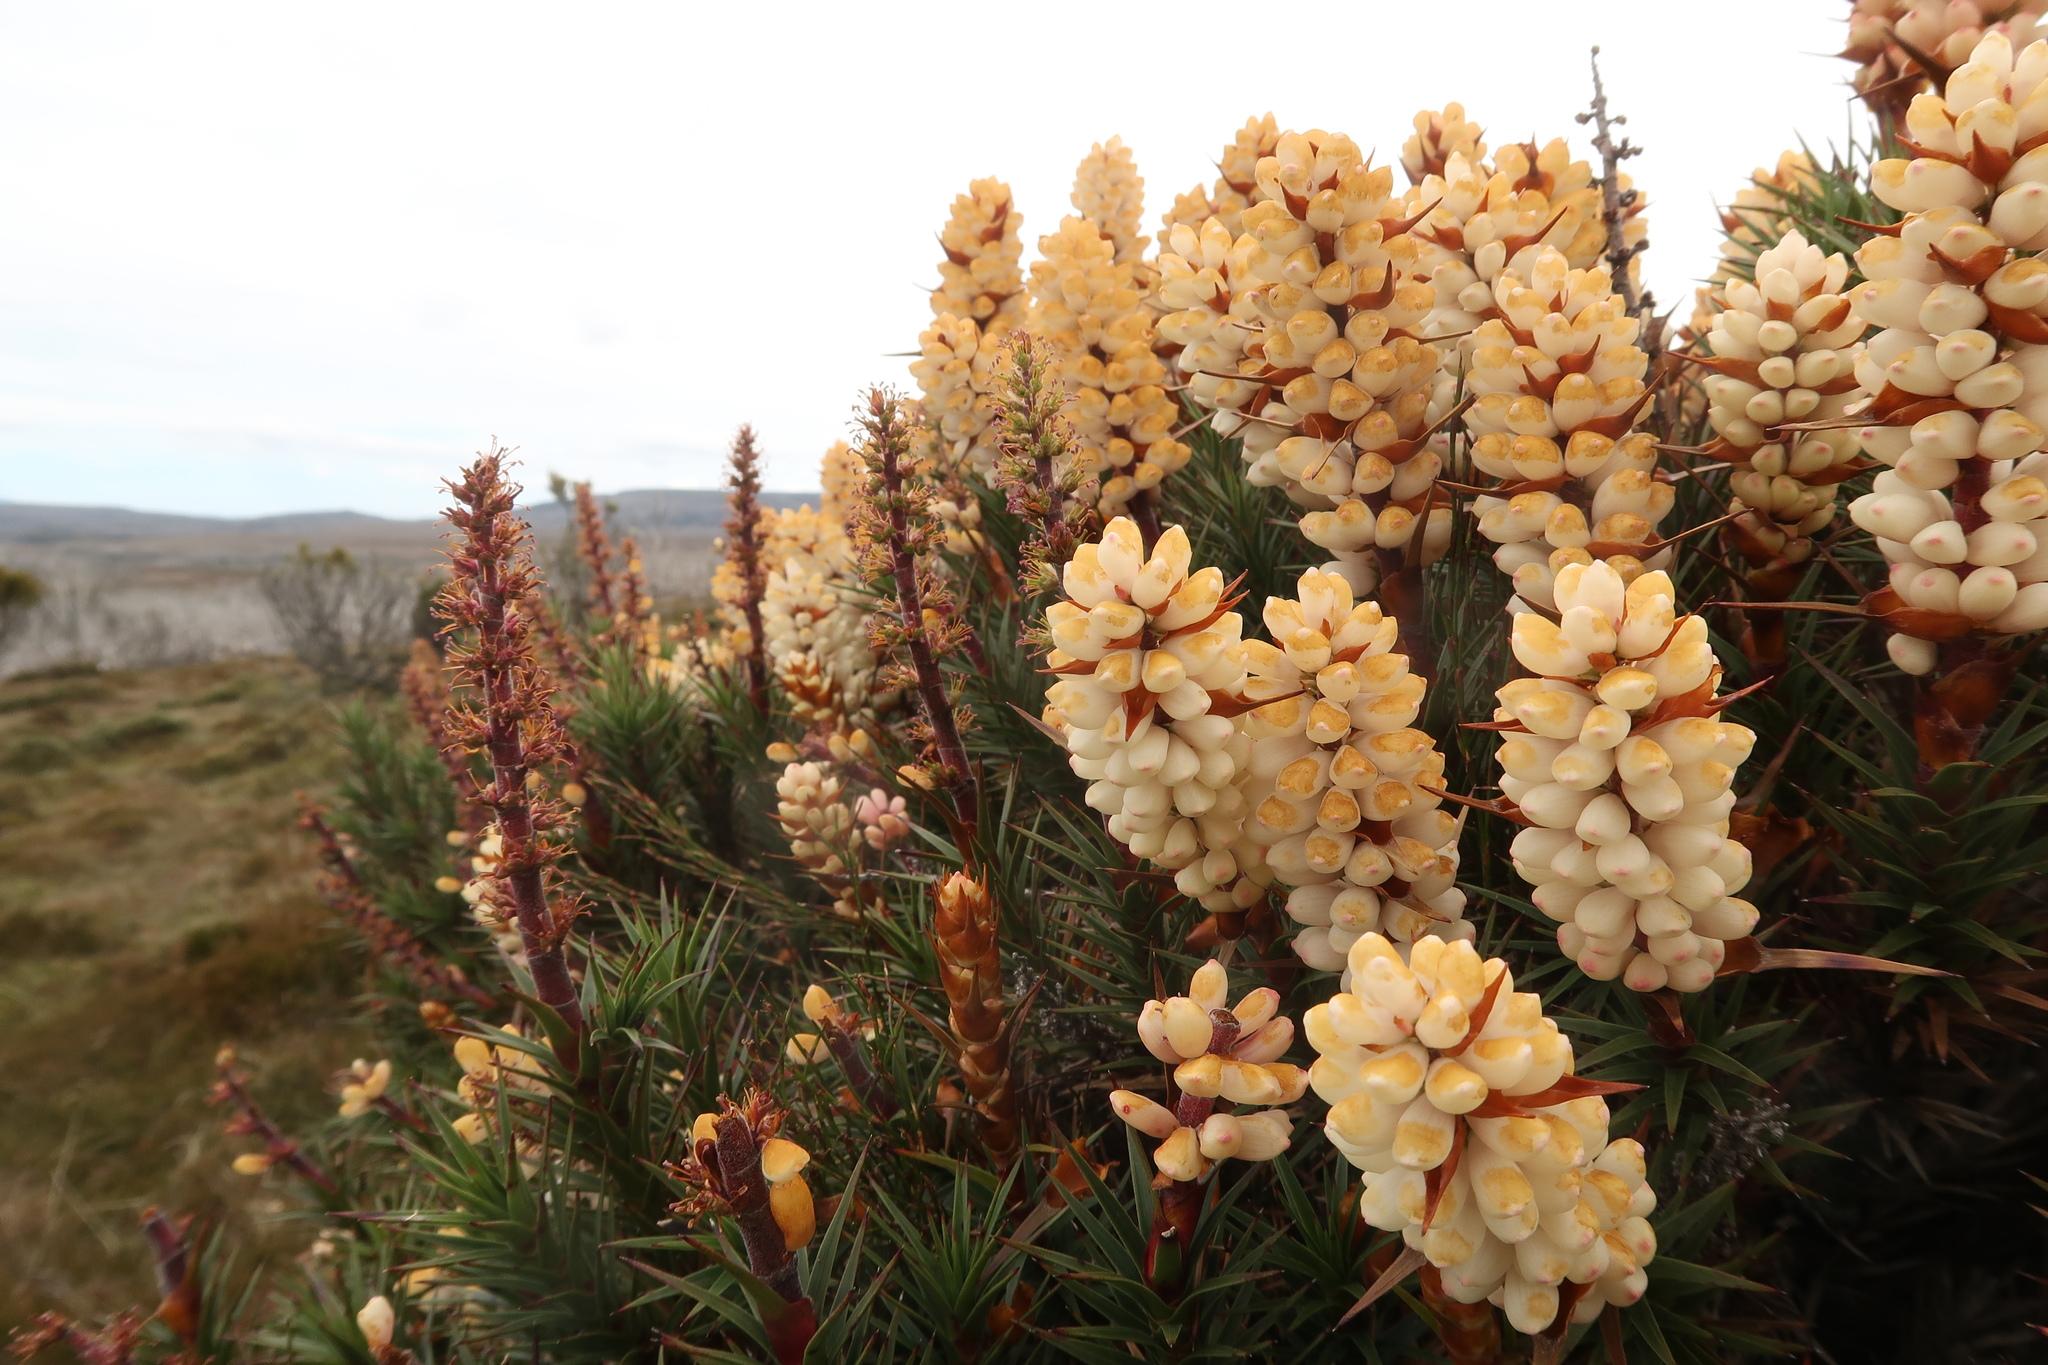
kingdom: Plantae
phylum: Tracheophyta
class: Magnoliopsida
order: Ericales
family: Ericaceae
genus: Dracophyllum
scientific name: Dracophyllum persistentifolium
